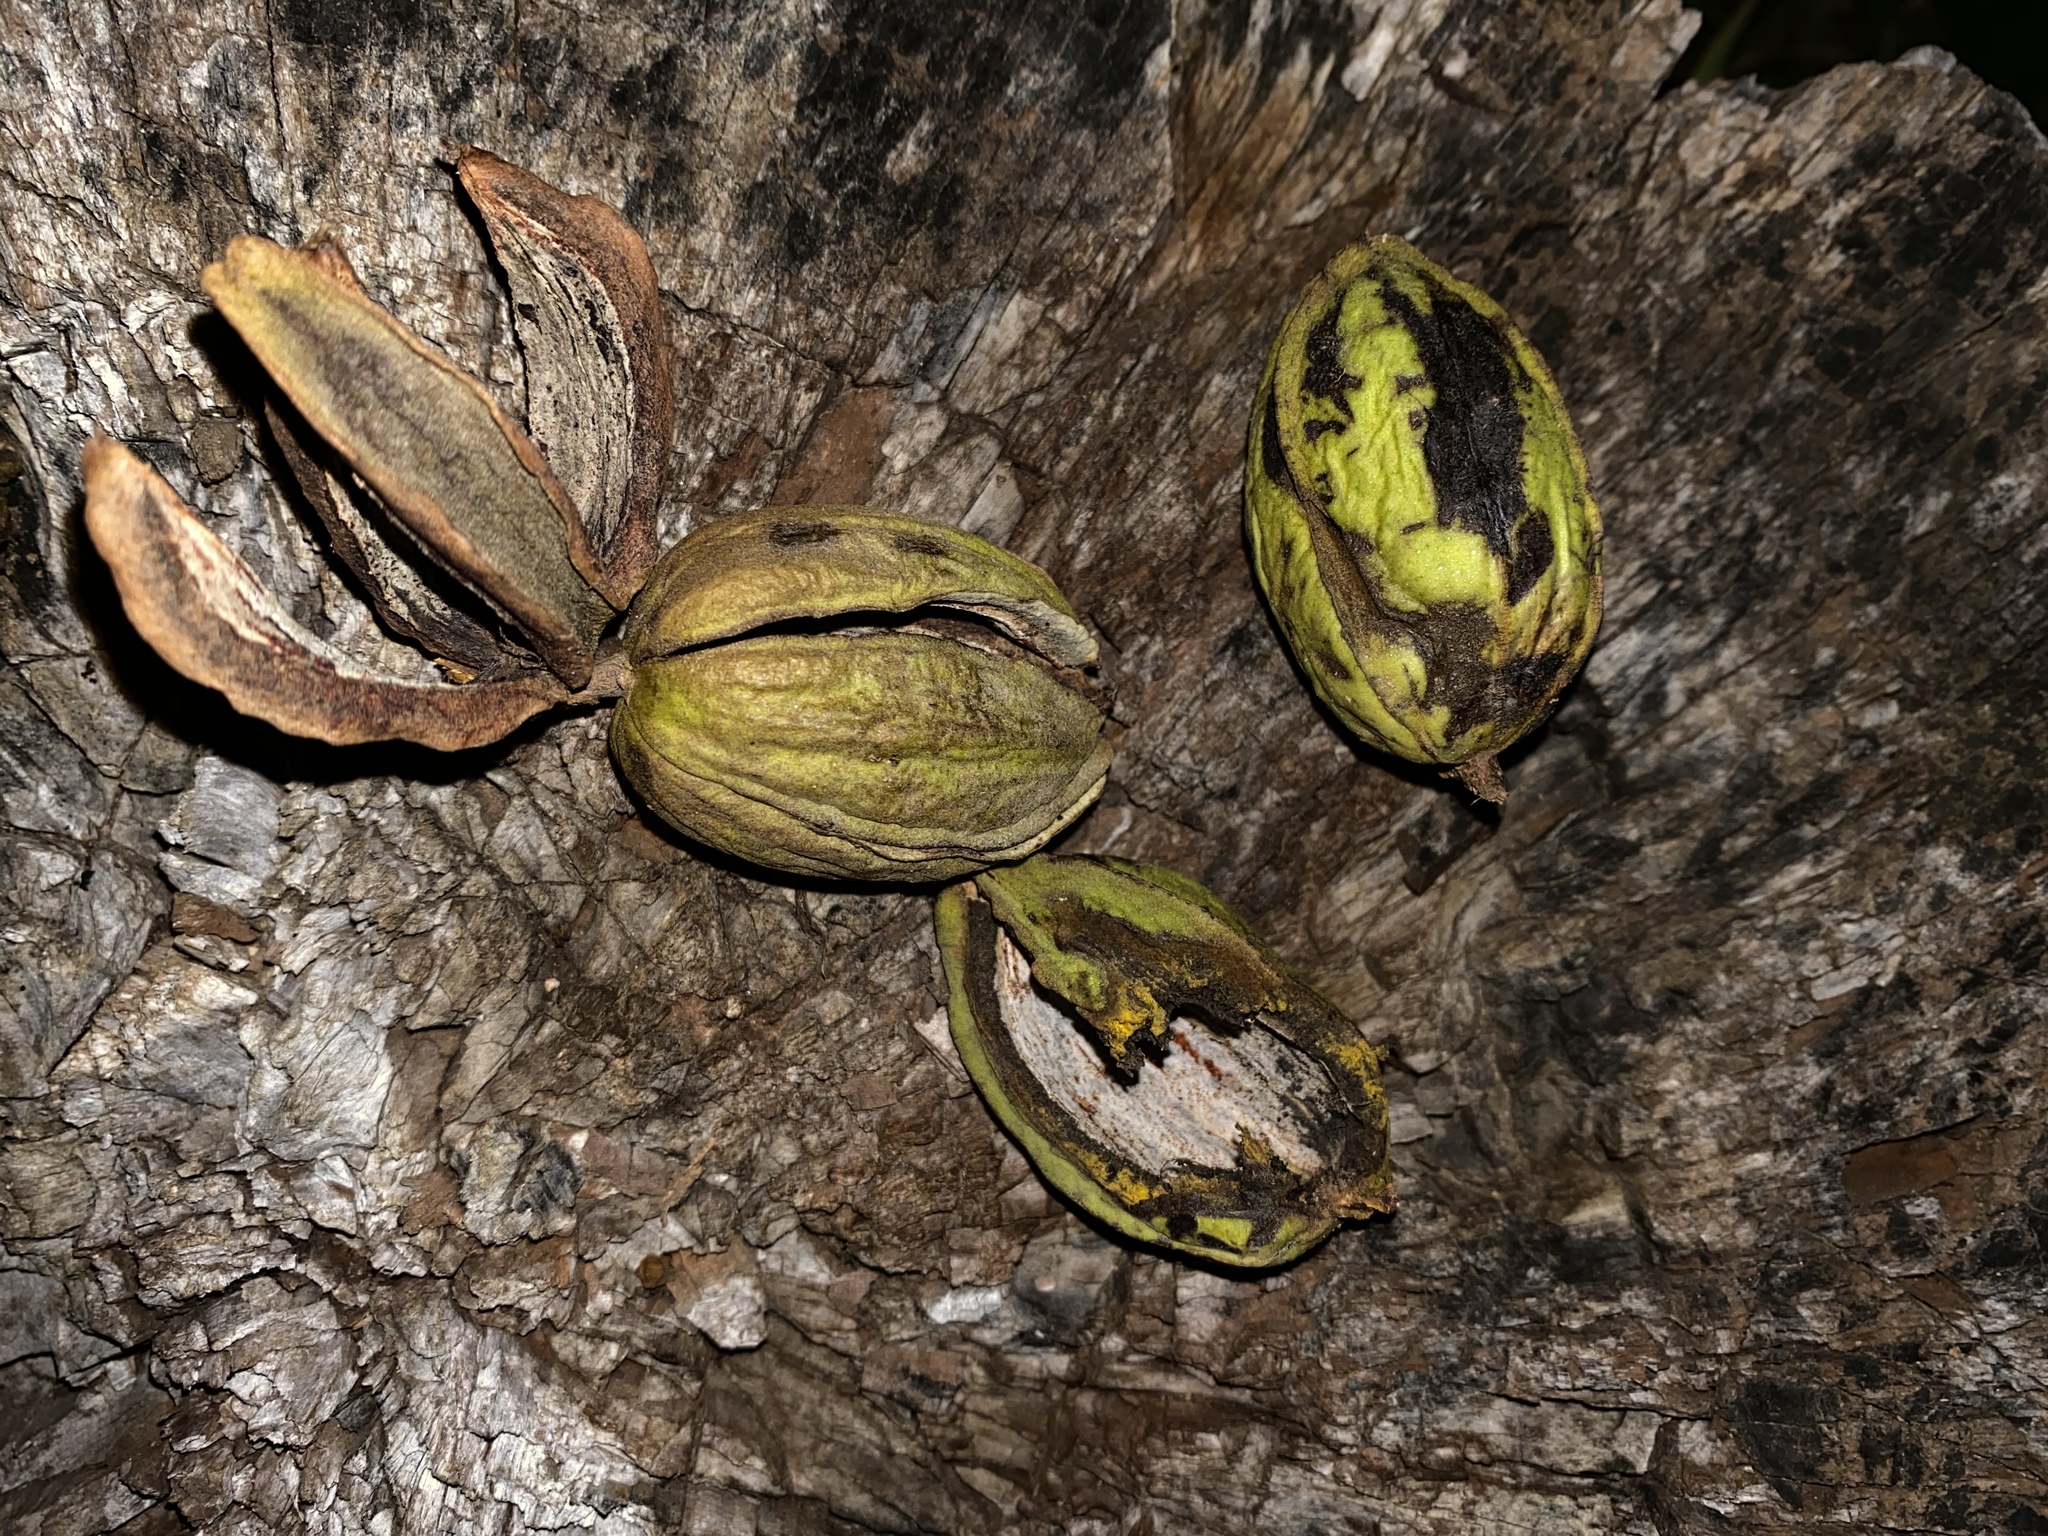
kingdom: Plantae
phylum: Tracheophyta
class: Magnoliopsida
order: Fagales
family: Juglandaceae
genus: Carya
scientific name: Carya illinoinensis
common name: Pecan
